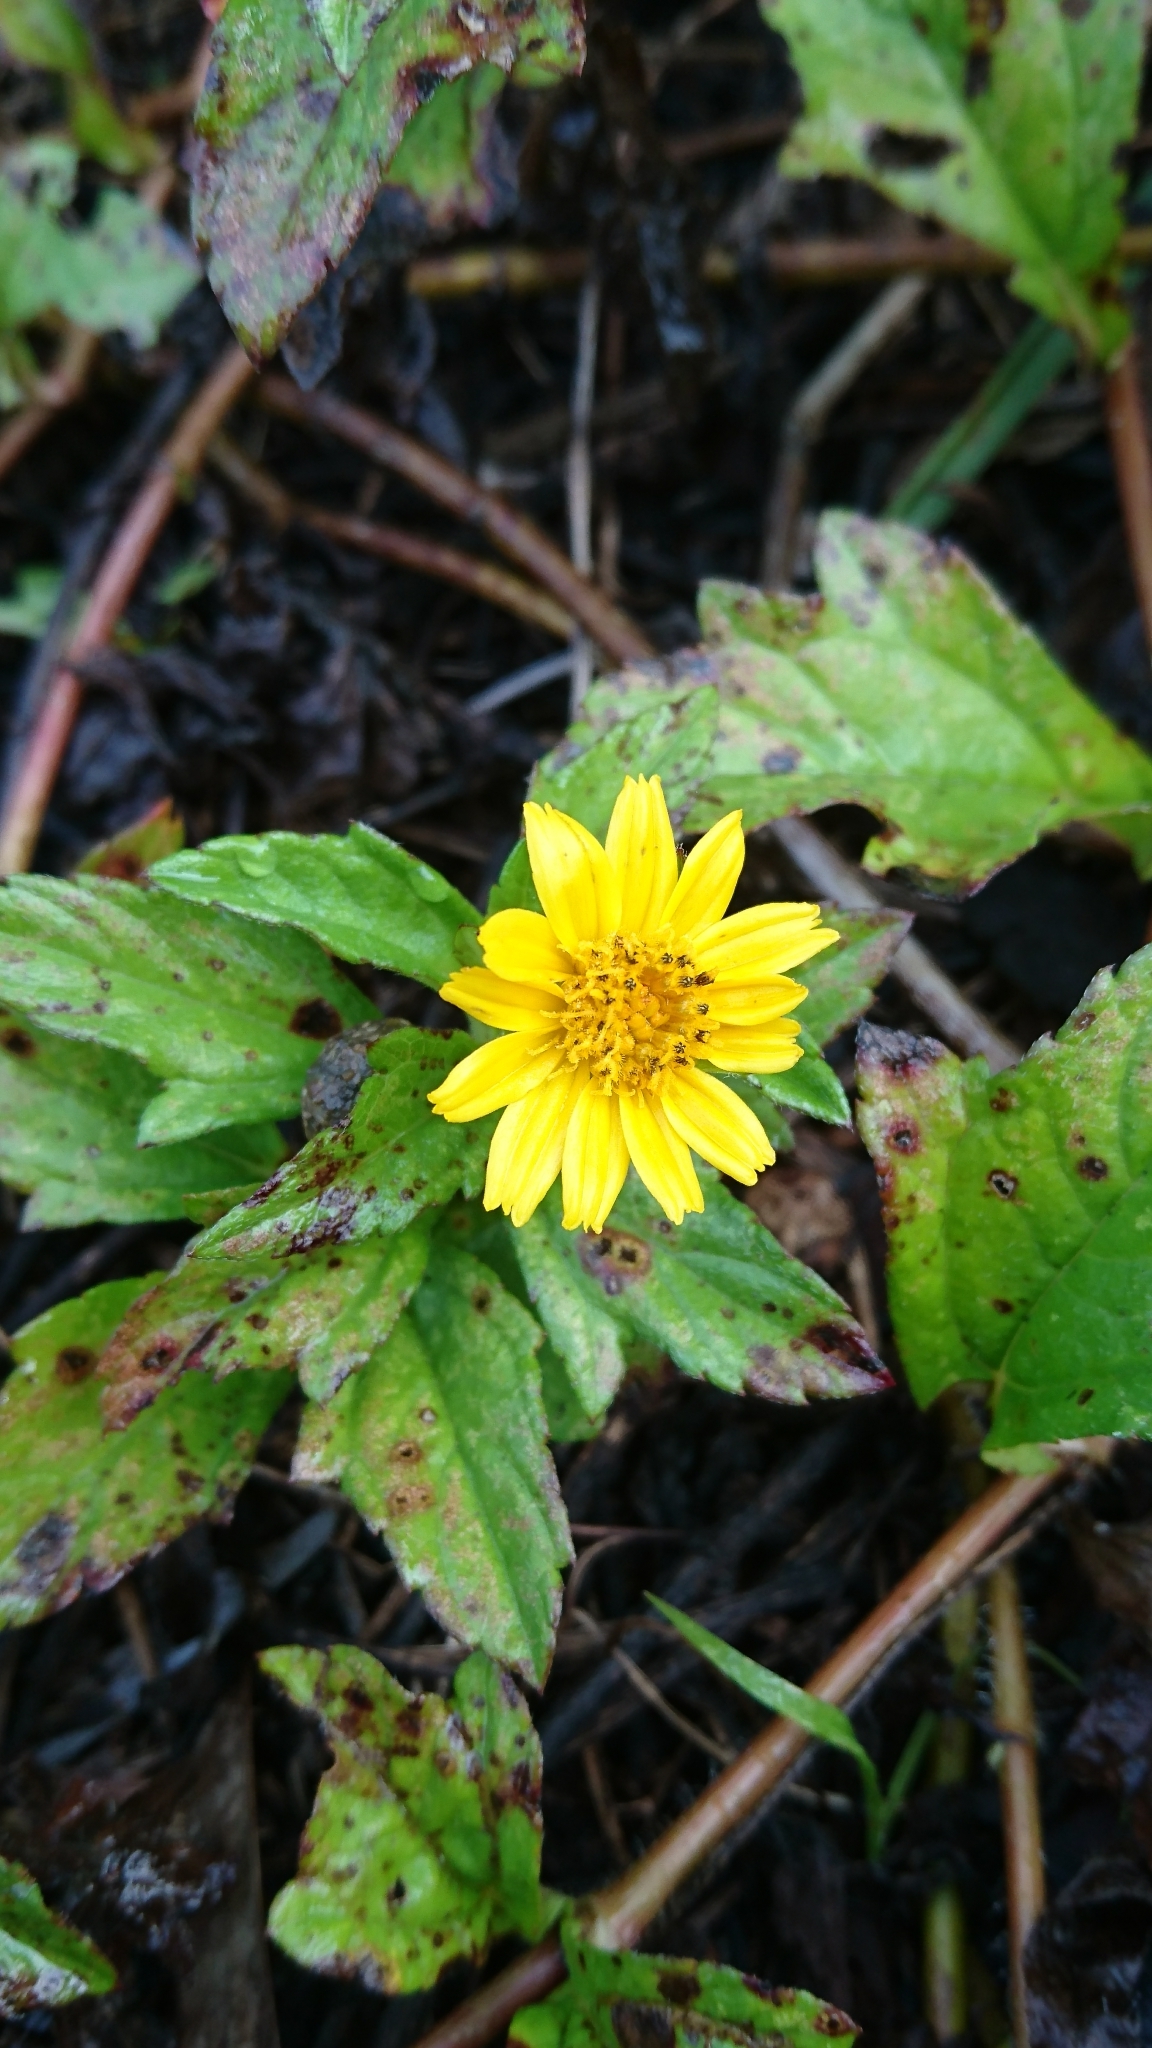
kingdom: Plantae
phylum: Tracheophyta
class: Magnoliopsida
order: Asterales
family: Asteraceae
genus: Sphagneticola
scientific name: Sphagneticola trilobata
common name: Bay biscayne creeping-oxeye
